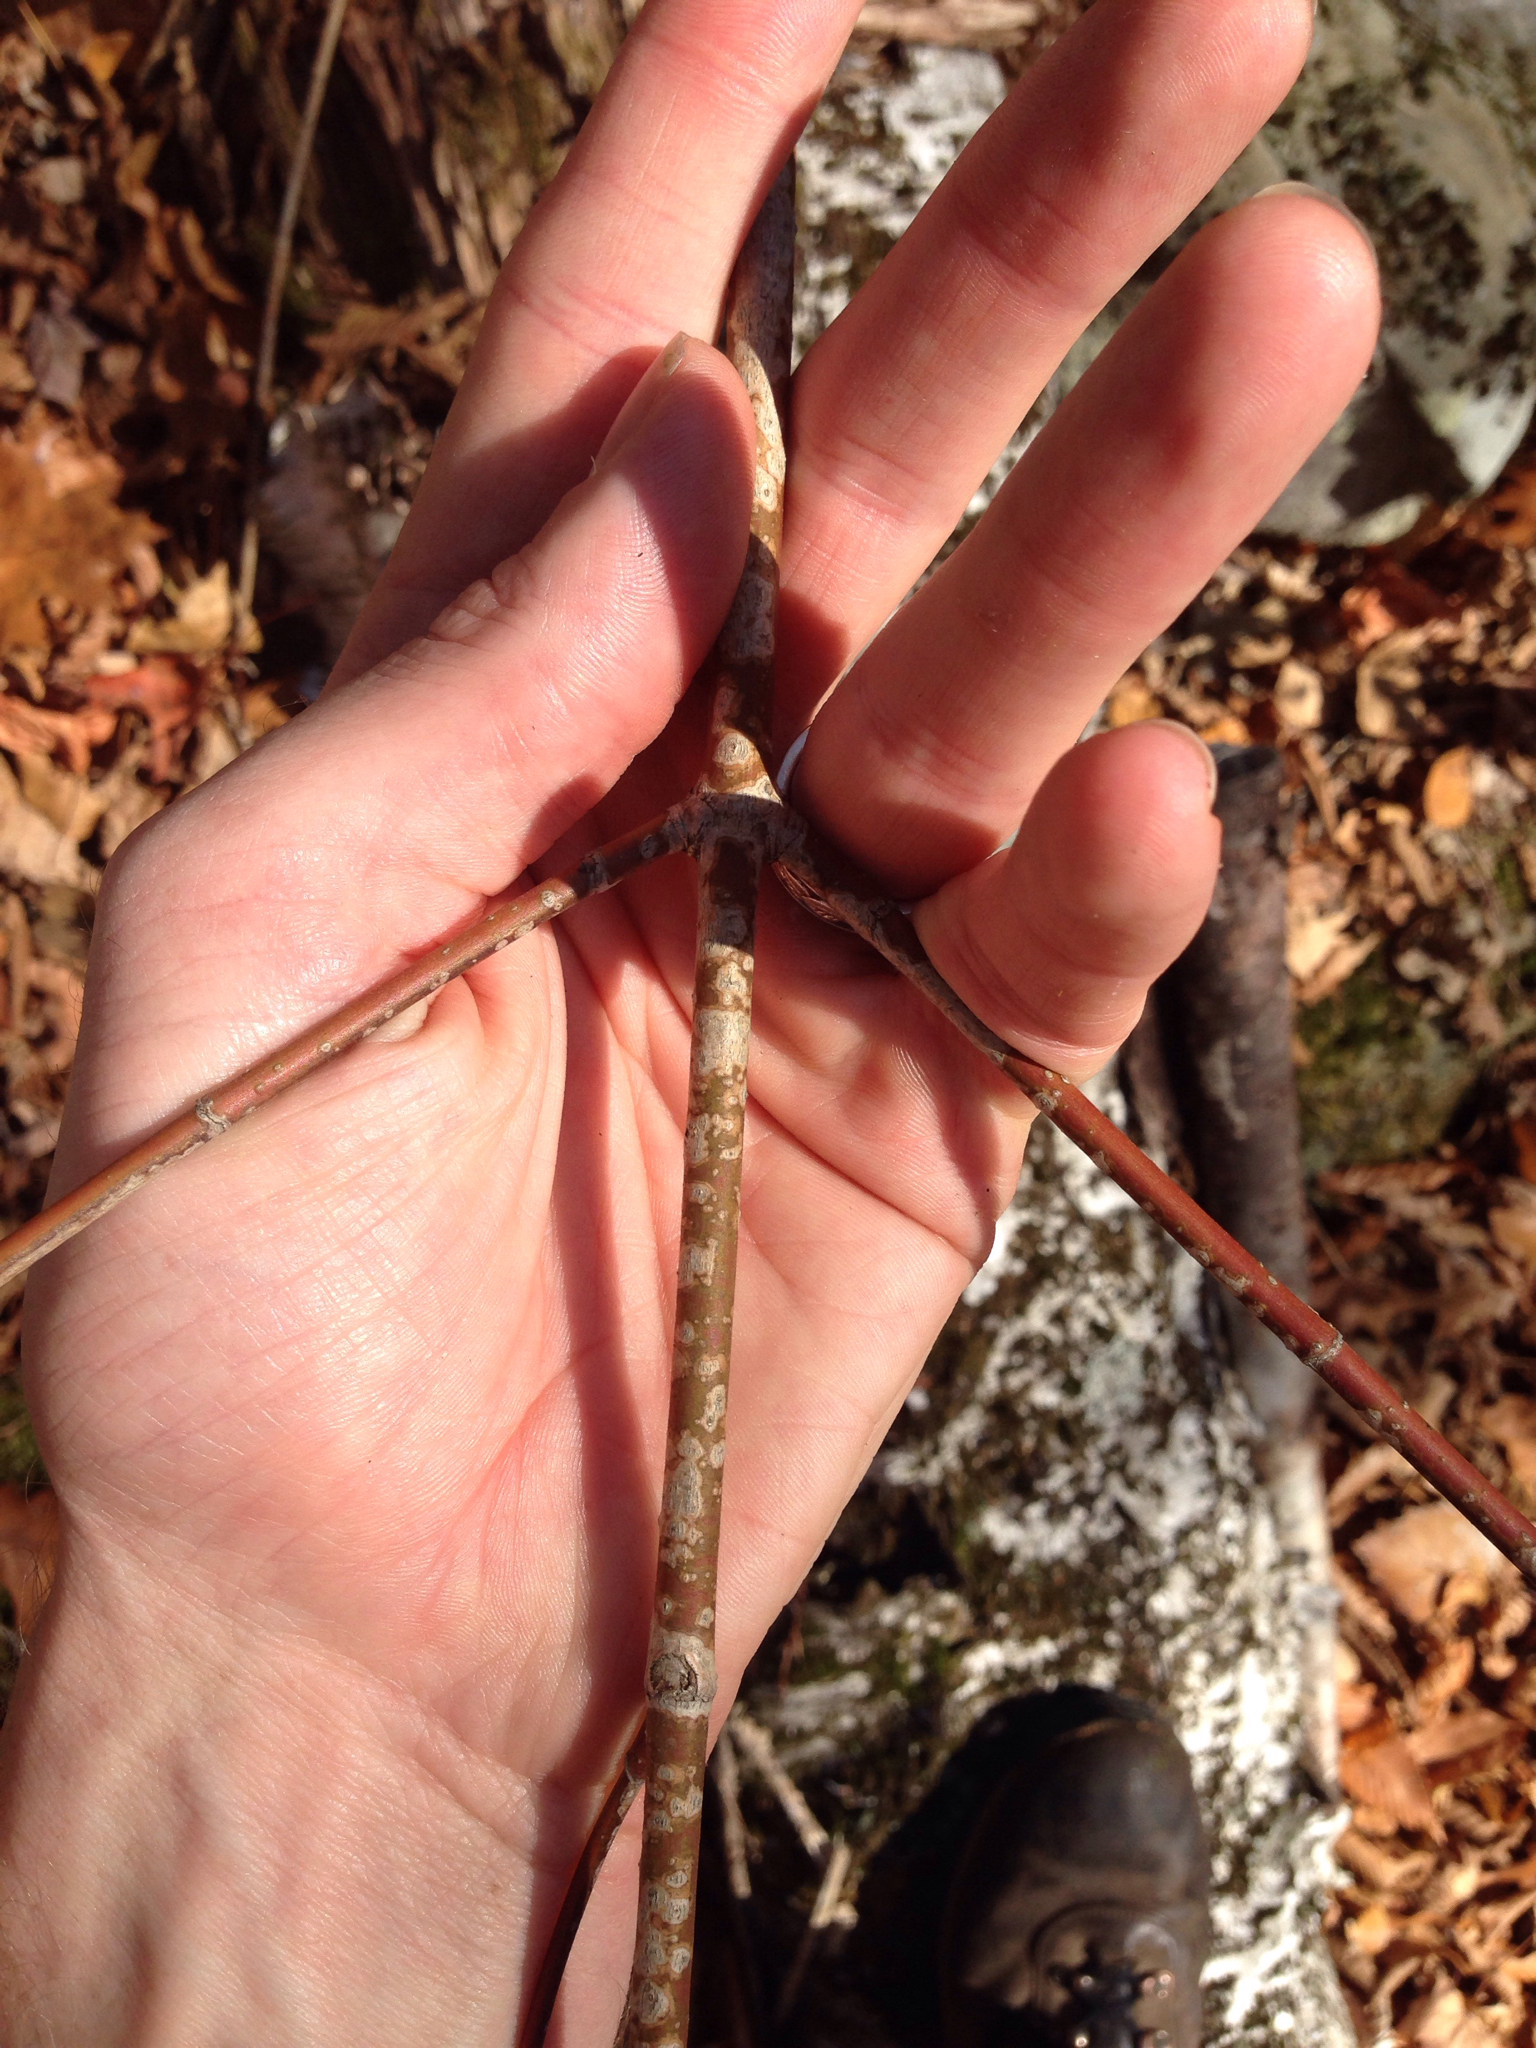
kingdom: Plantae
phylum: Tracheophyta
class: Magnoliopsida
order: Sapindales
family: Sapindaceae
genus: Acer
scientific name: Acer spicatum
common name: Mountain maple
